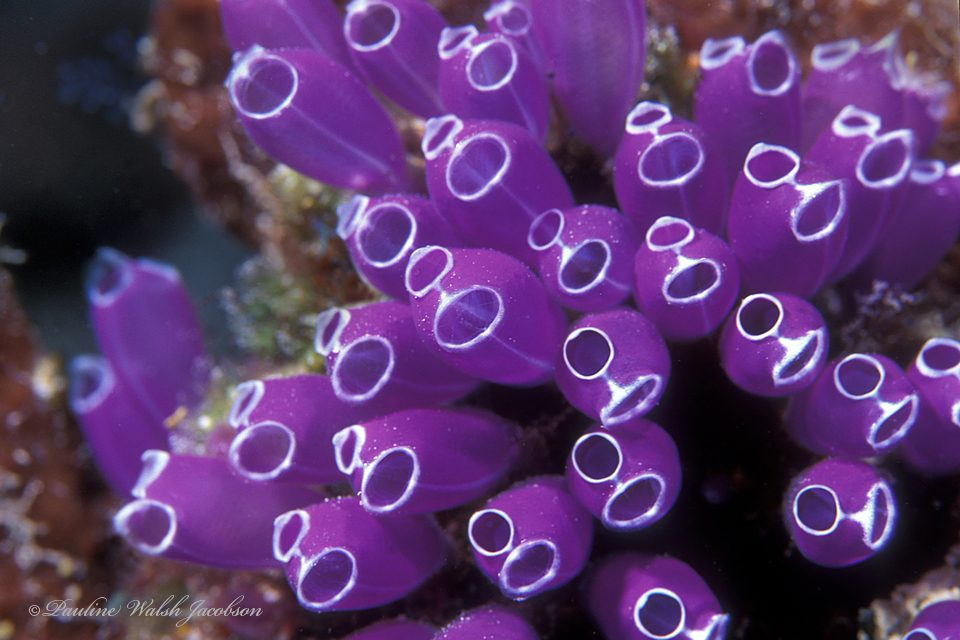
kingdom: Animalia
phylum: Chordata
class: Ascidiacea
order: Aplousobranchia
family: Clavelinidae
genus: Clavelina
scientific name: Clavelina puertosecensis
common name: Blue bell tunicate
